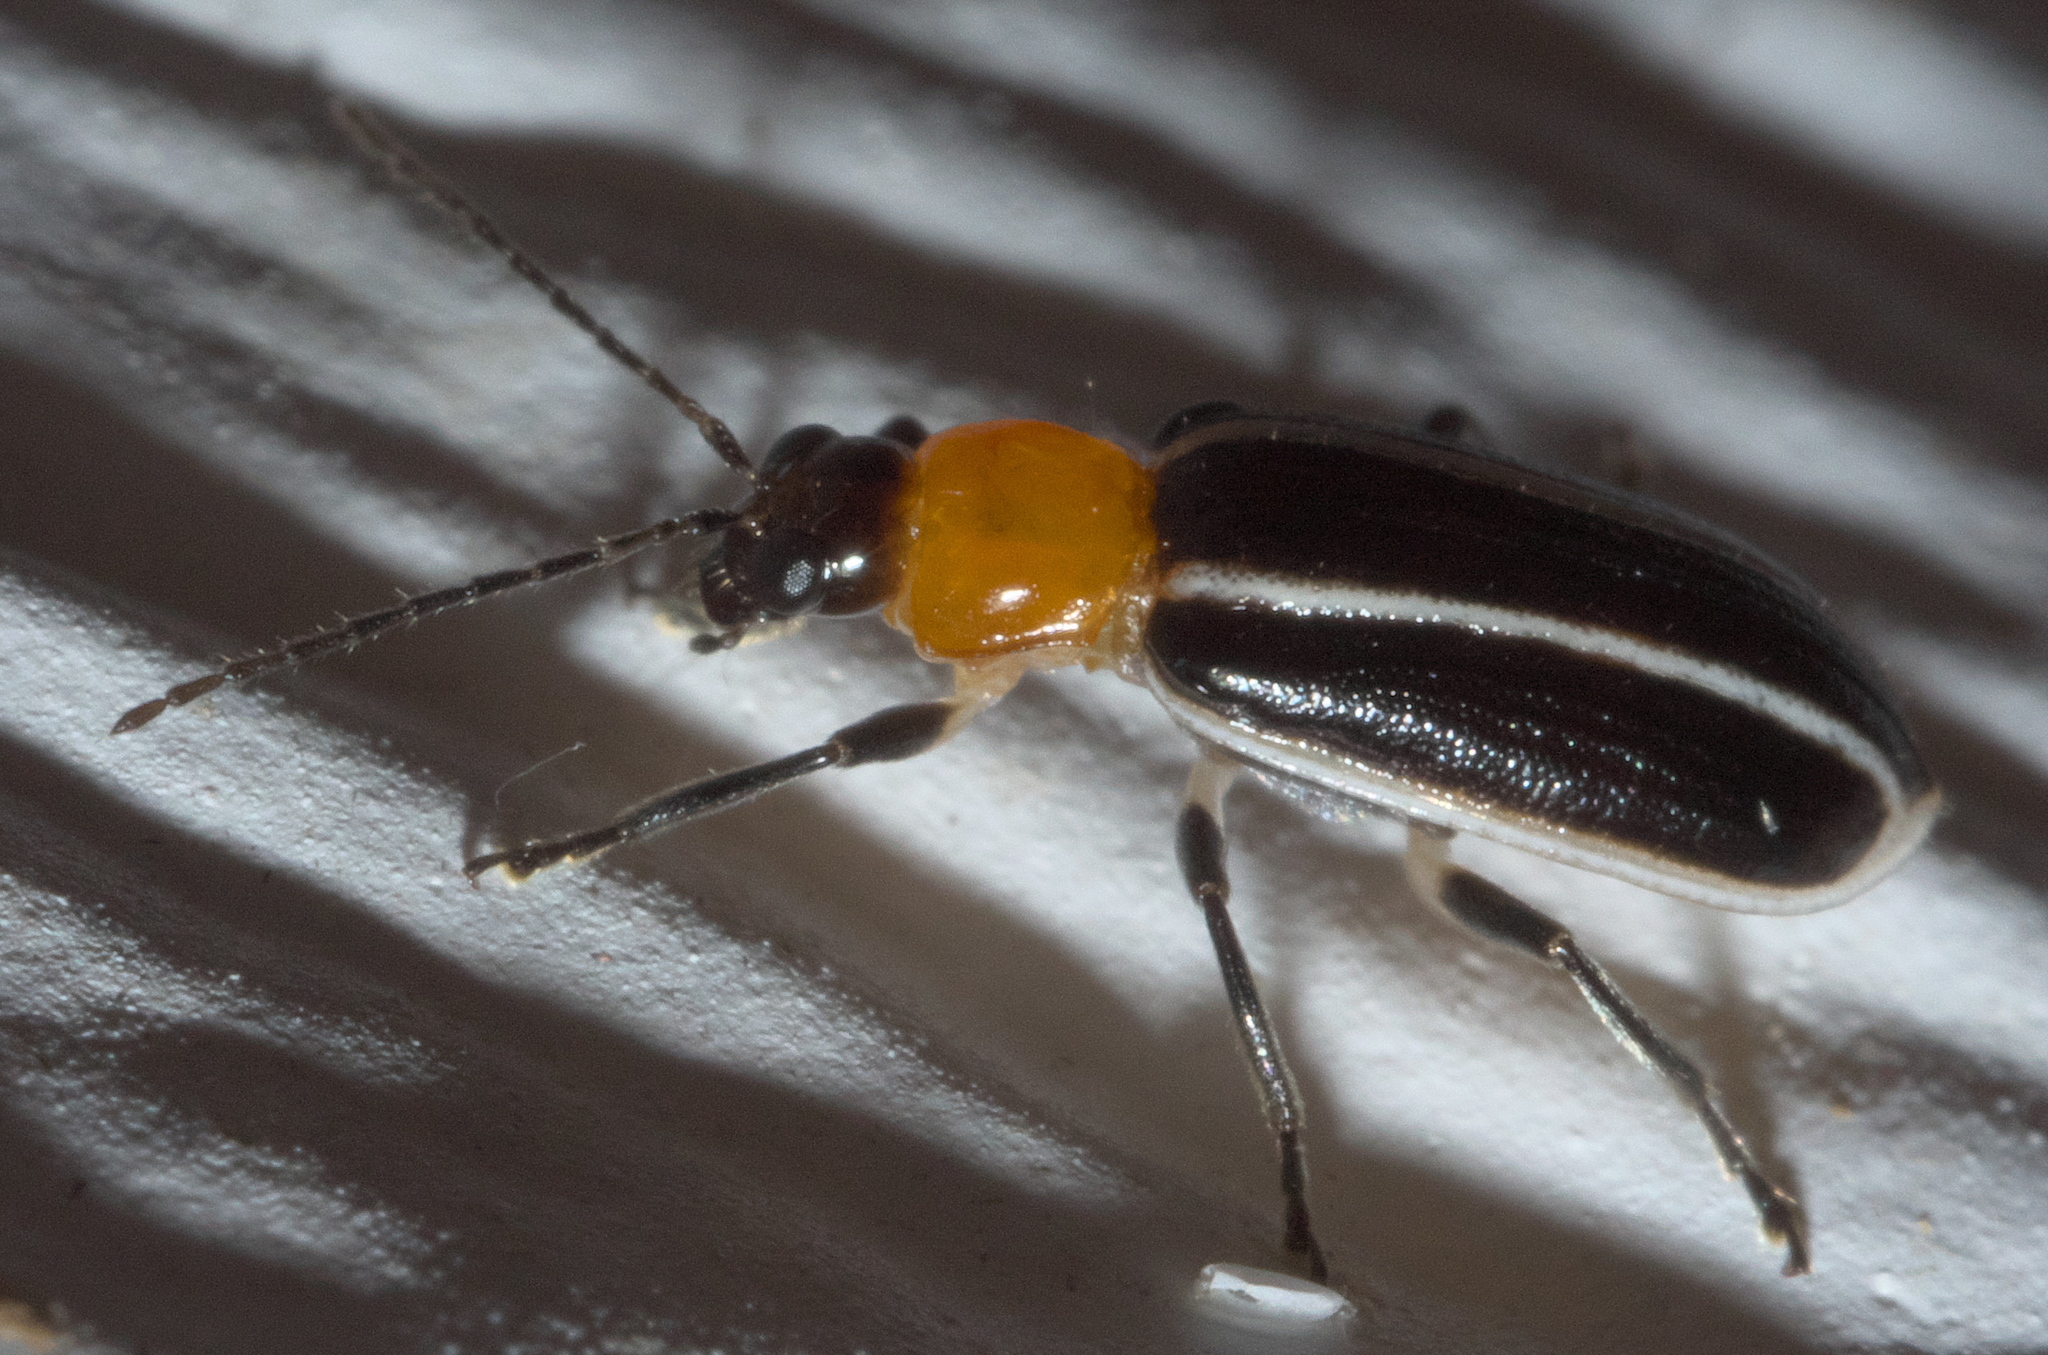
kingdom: Animalia
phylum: Arthropoda
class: Insecta
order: Coleoptera
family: Chrysomelidae
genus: Acalymma
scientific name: Acalymma vinctum
